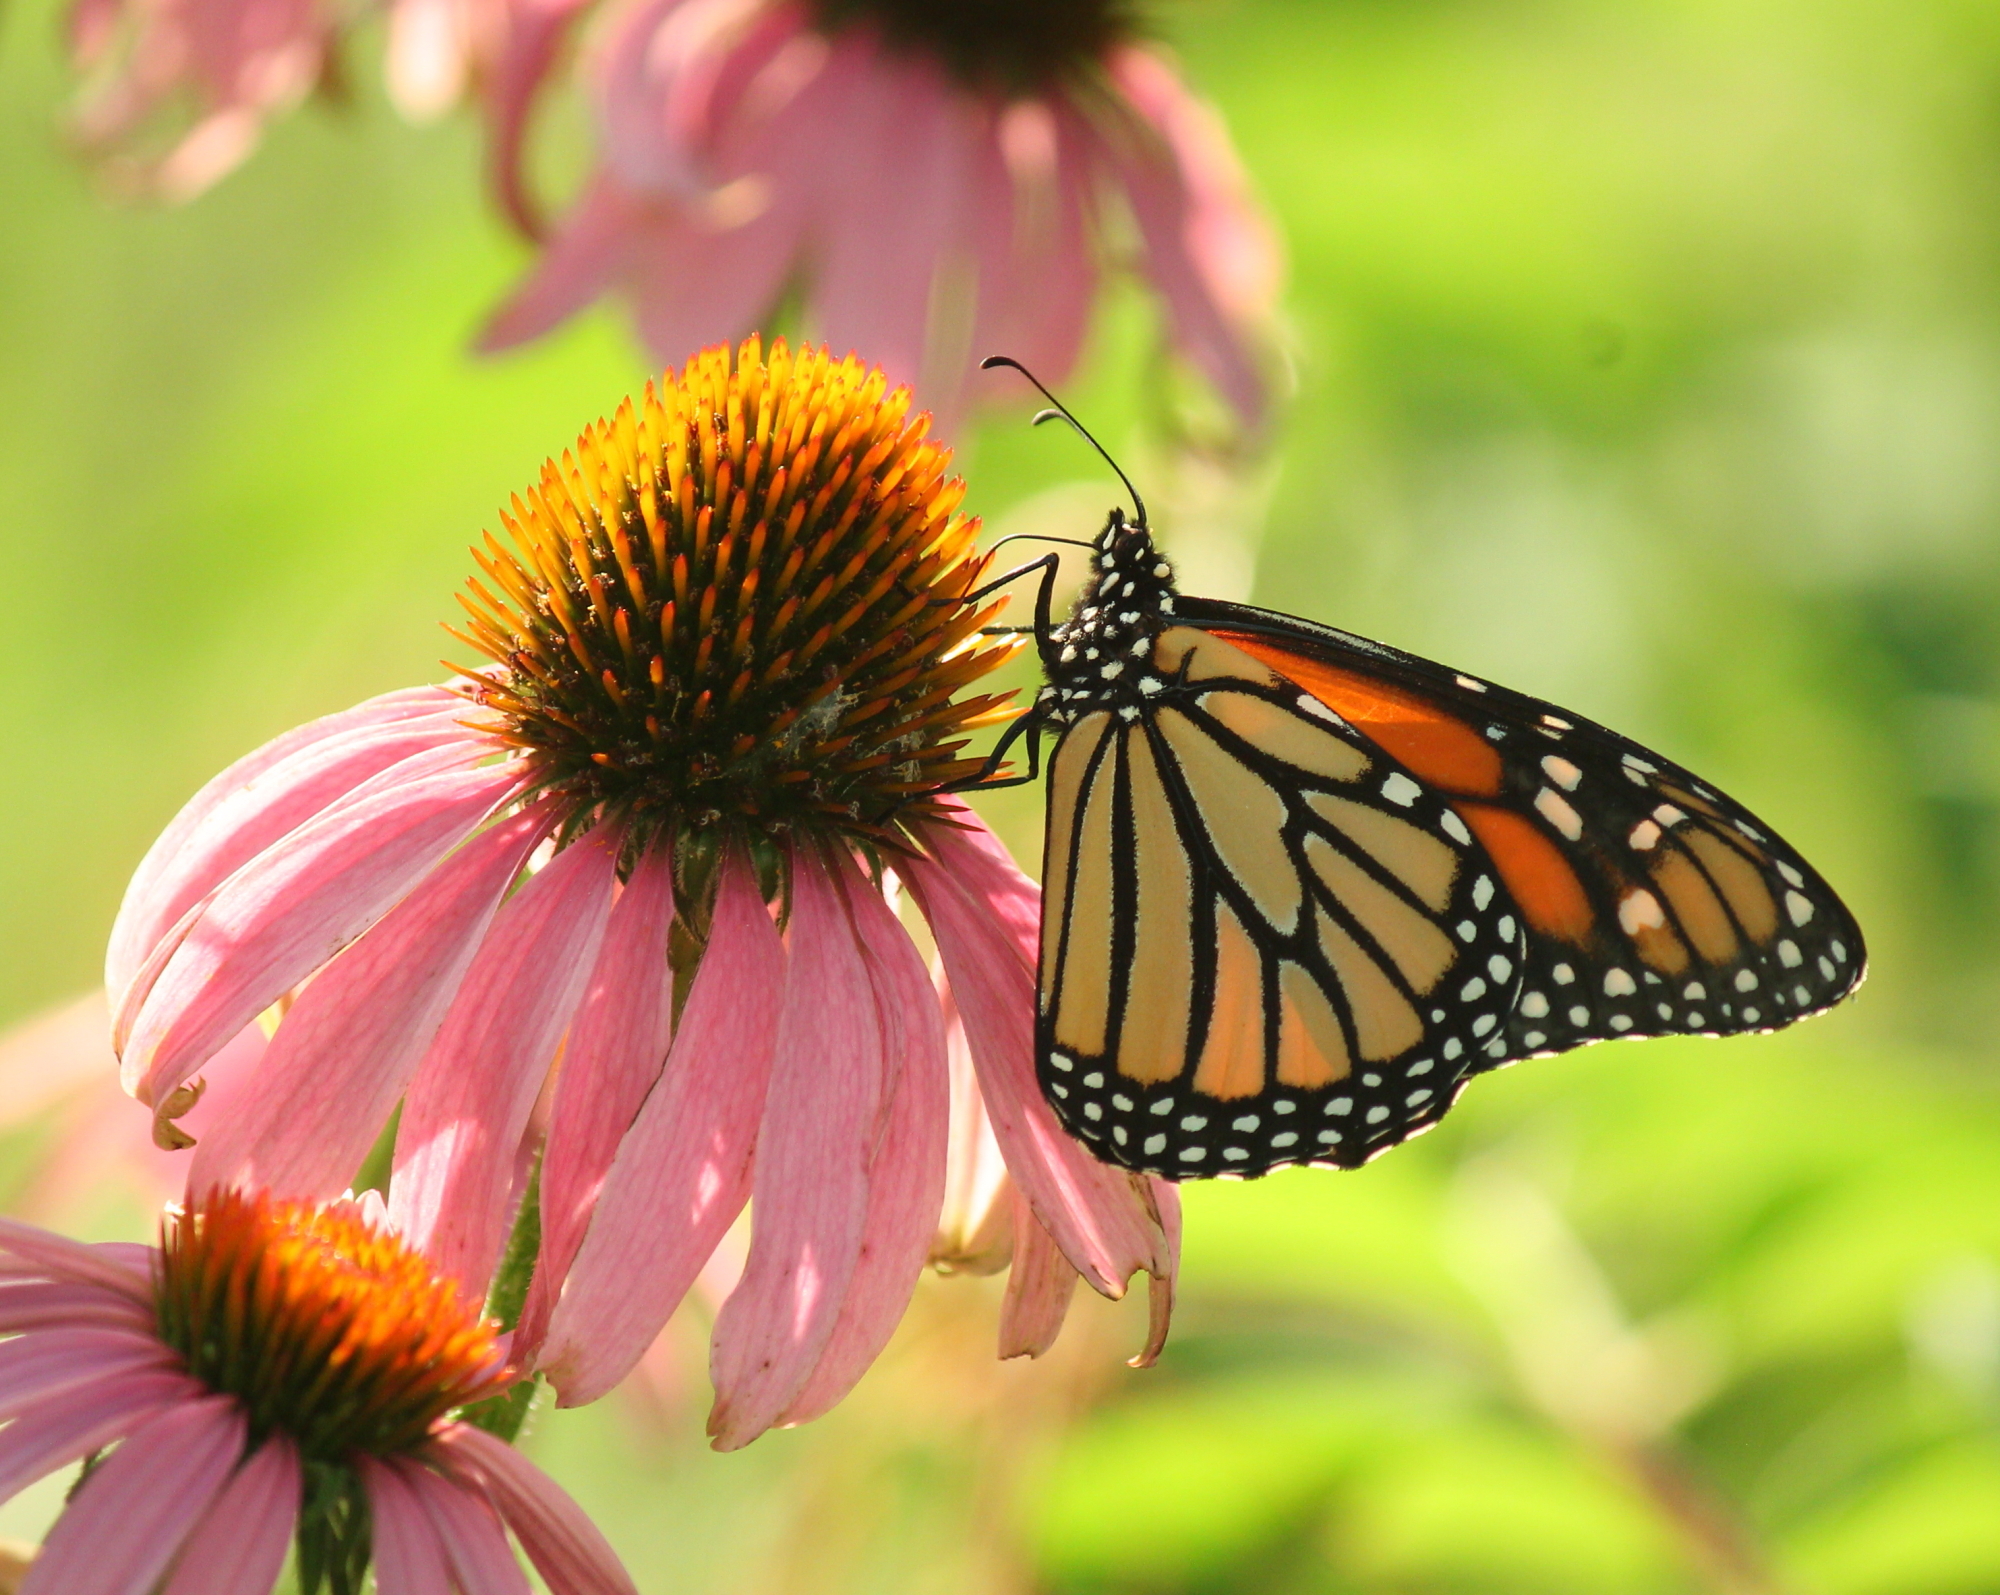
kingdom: Animalia
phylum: Arthropoda
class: Insecta
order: Lepidoptera
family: Nymphalidae
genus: Danaus
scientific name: Danaus plexippus
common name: Monarch
